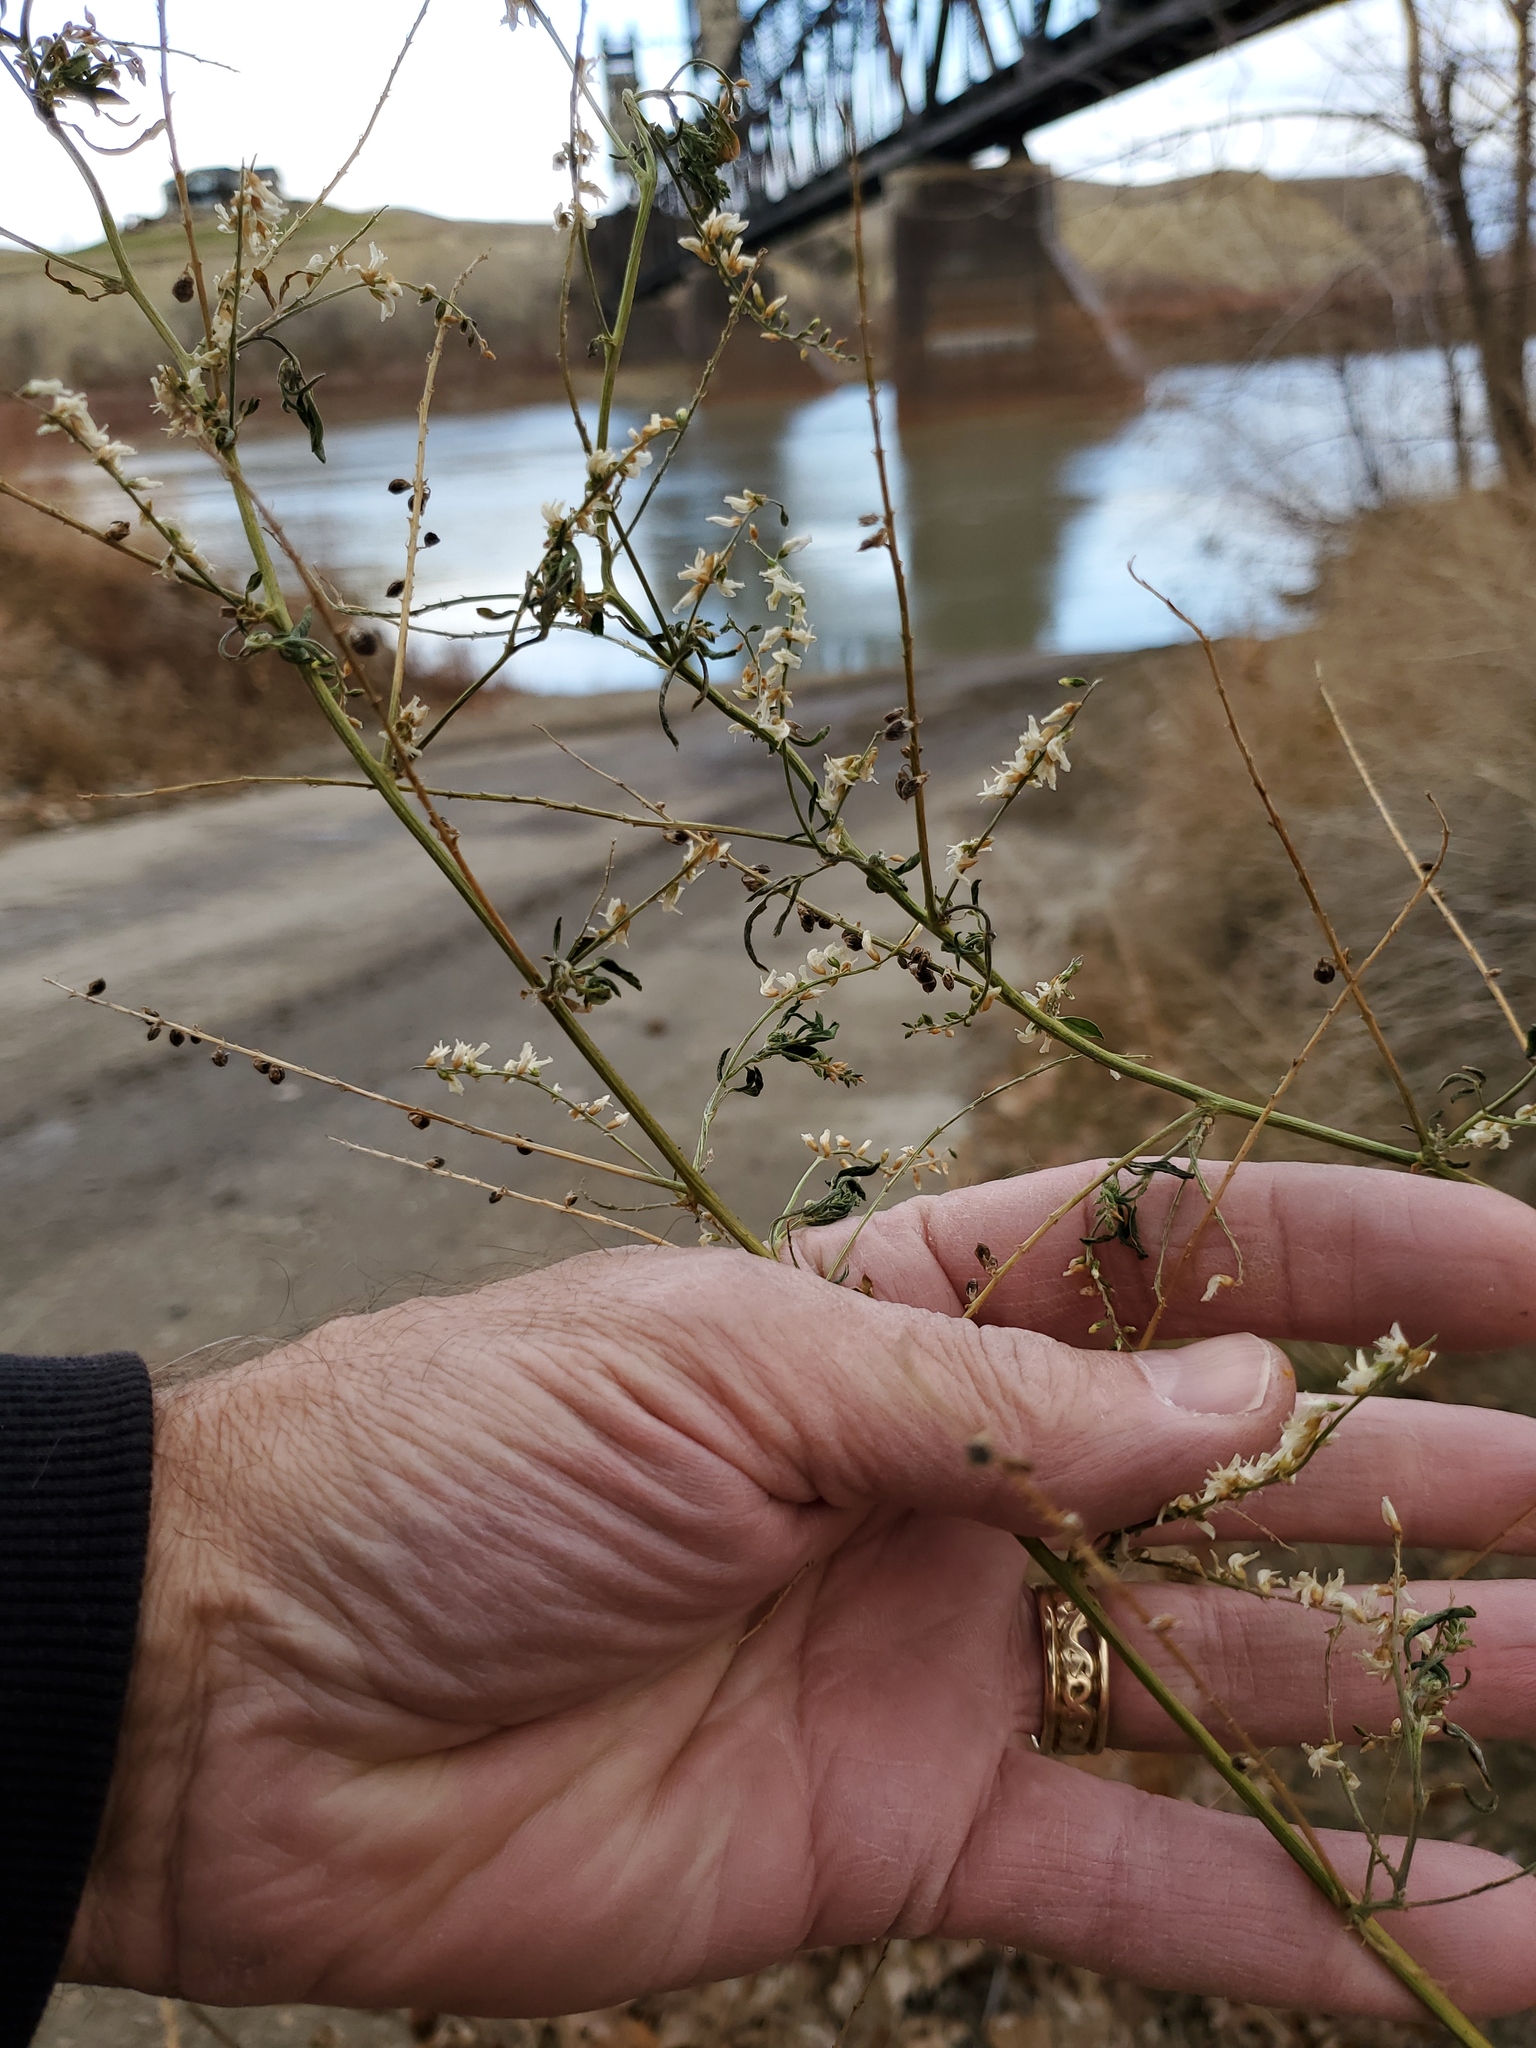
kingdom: Plantae
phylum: Tracheophyta
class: Magnoliopsida
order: Fabales
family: Fabaceae
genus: Melilotus
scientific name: Melilotus officinalis
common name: Sweetclover
